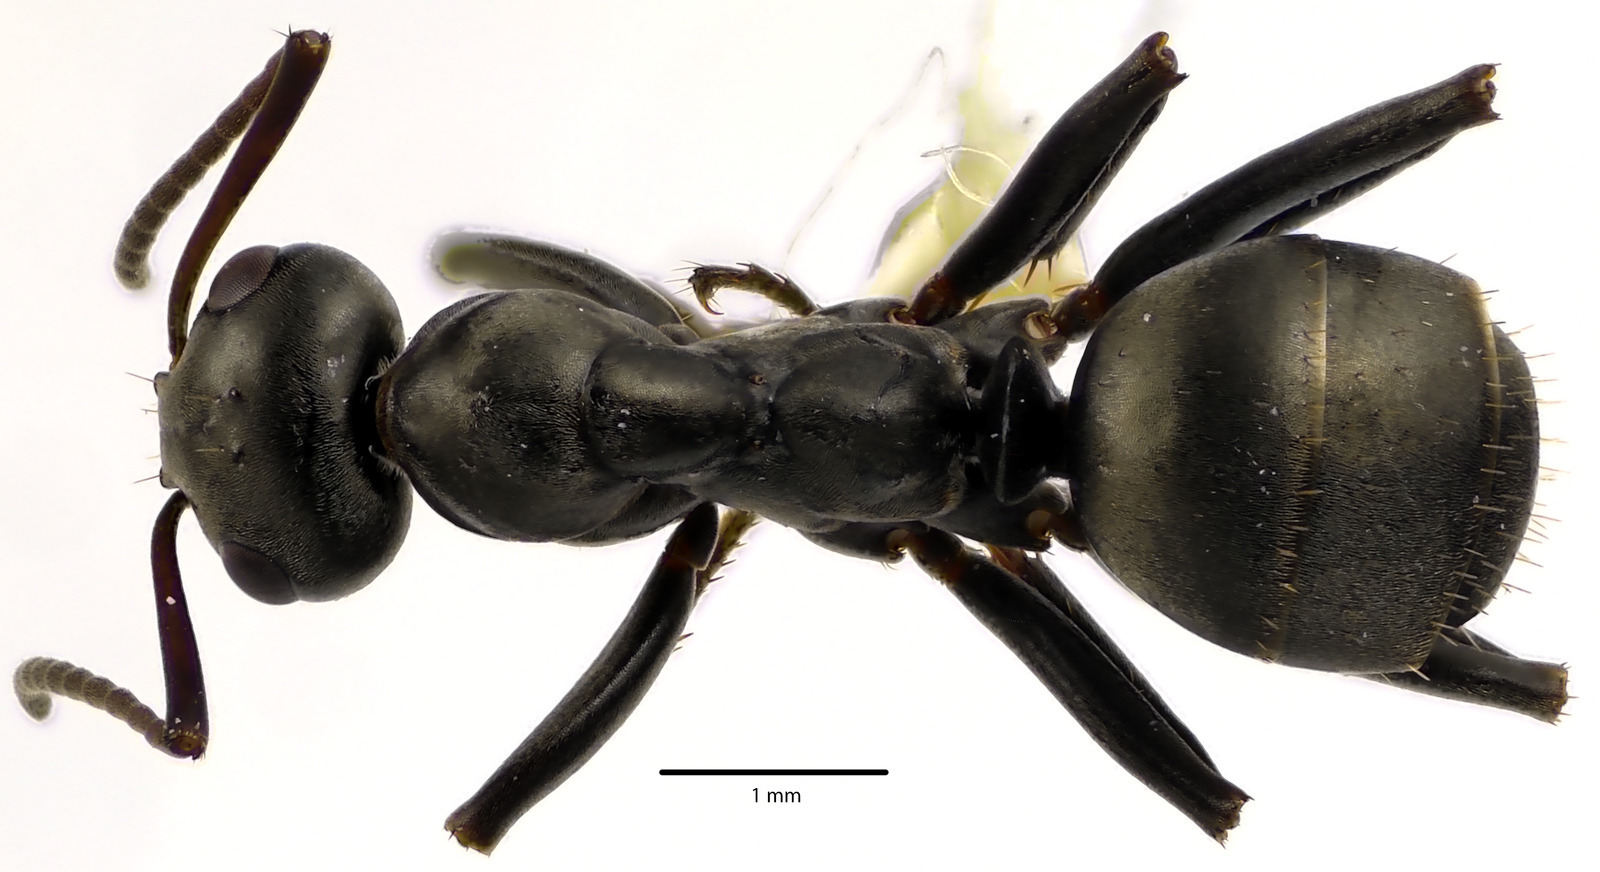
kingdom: Animalia
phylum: Arthropoda
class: Insecta
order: Hymenoptera
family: Formicidae
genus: Formica
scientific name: Formica subsericea
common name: Silky field ant
